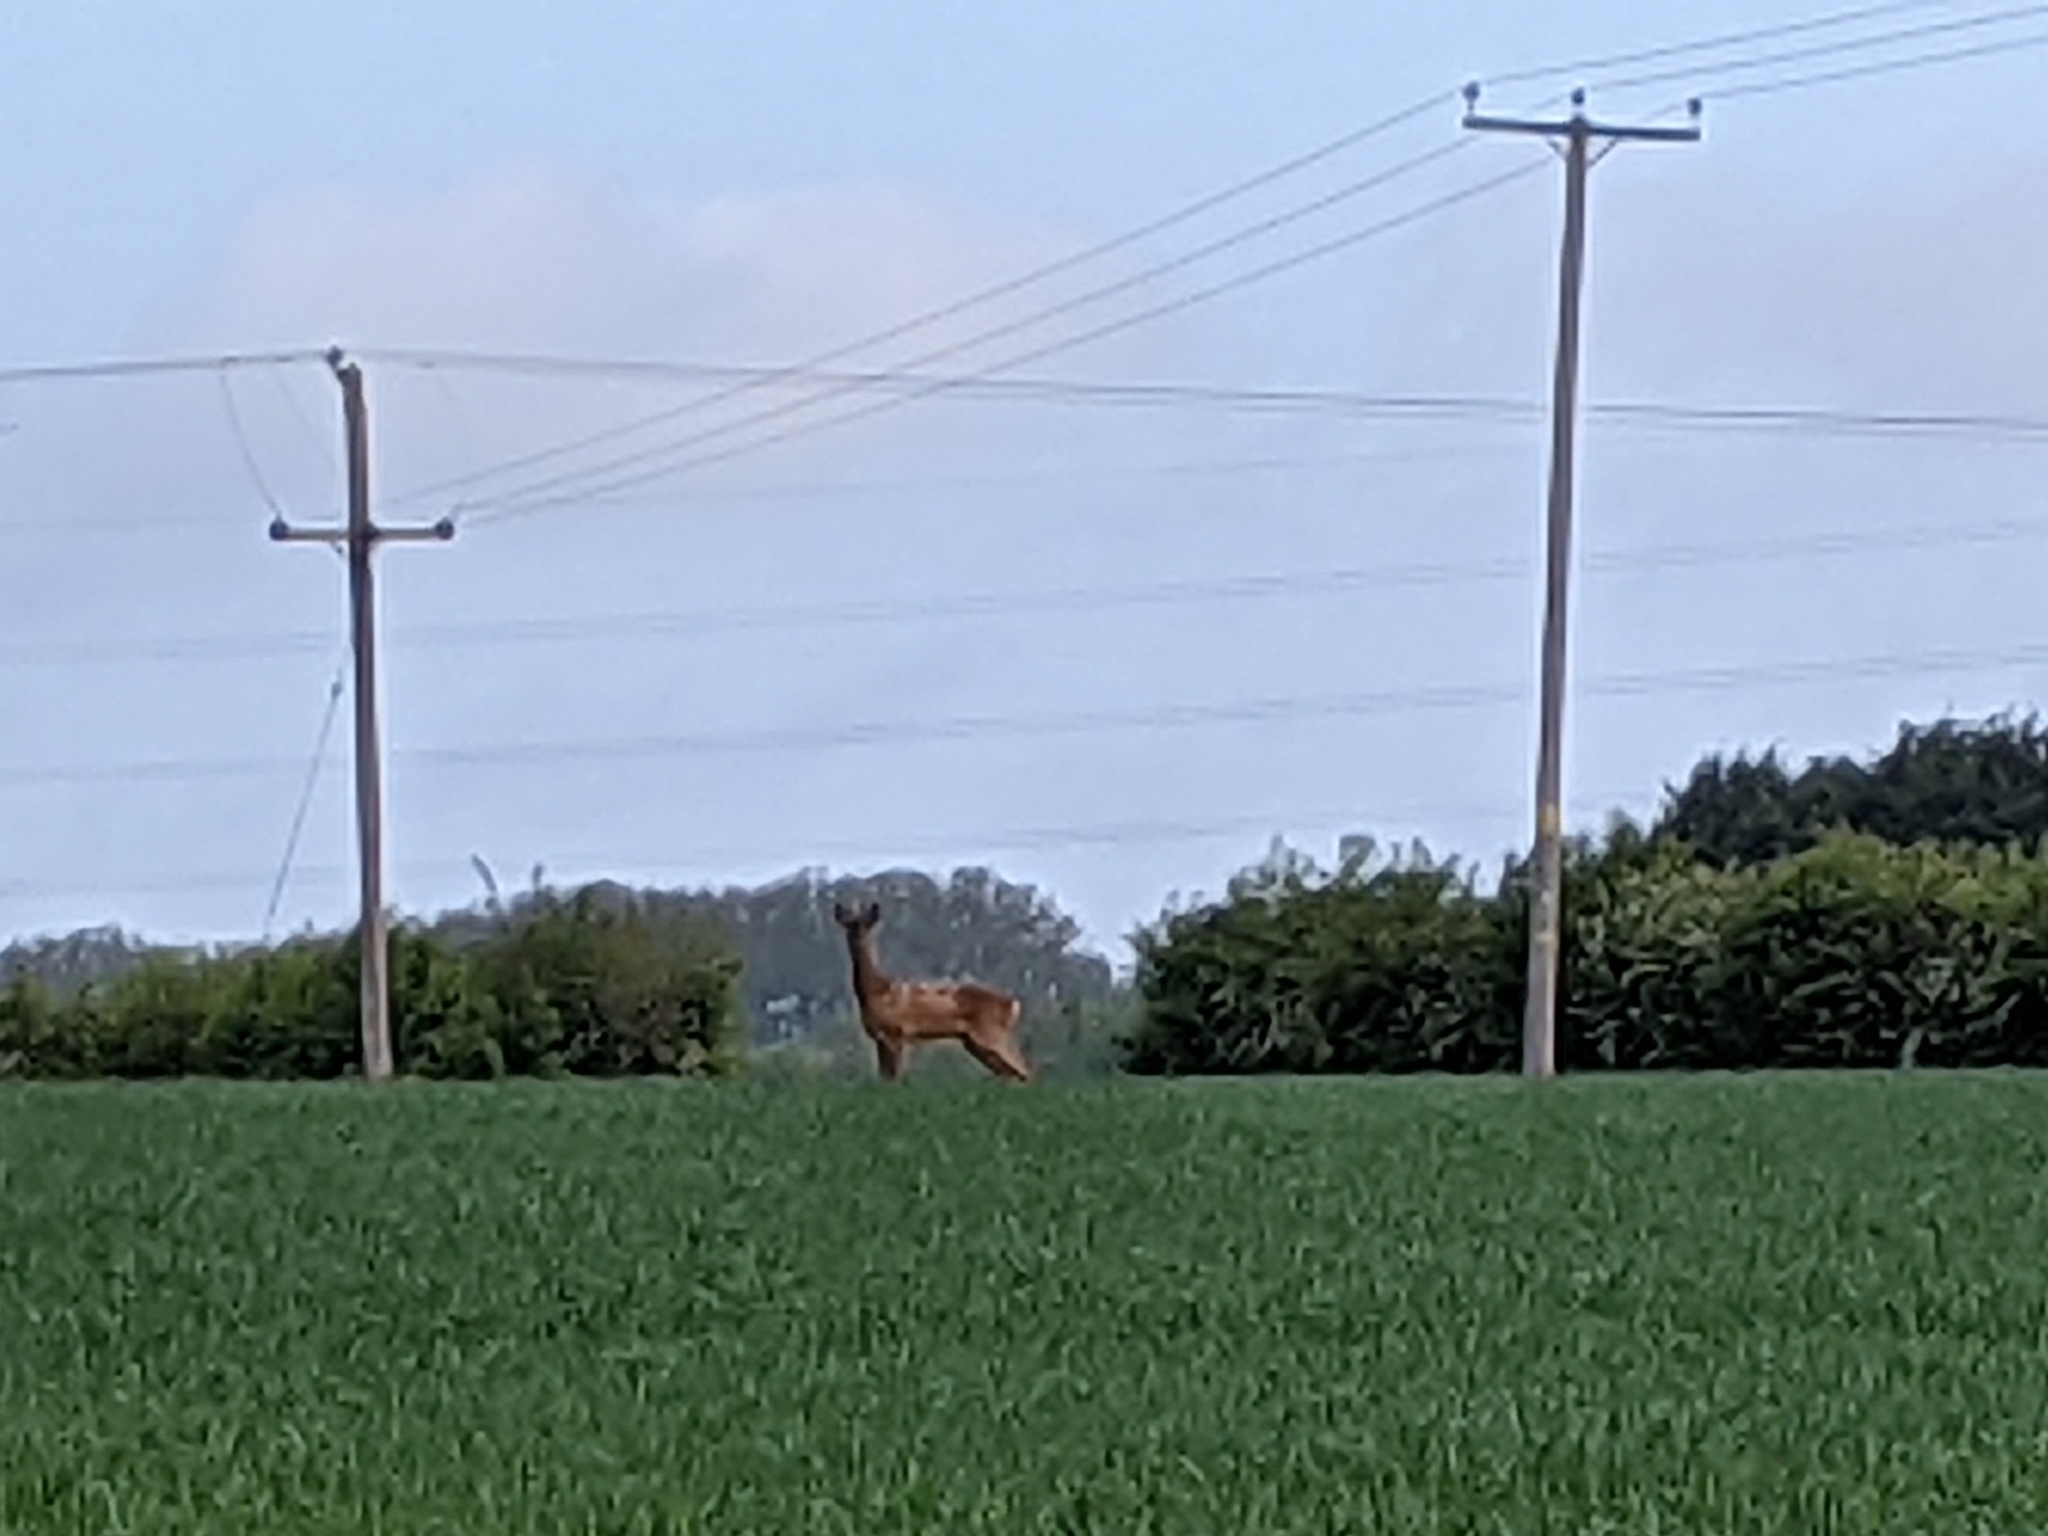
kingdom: Animalia
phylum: Chordata
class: Mammalia
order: Artiodactyla
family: Cervidae
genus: Capreolus
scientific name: Capreolus capreolus
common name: Western roe deer
